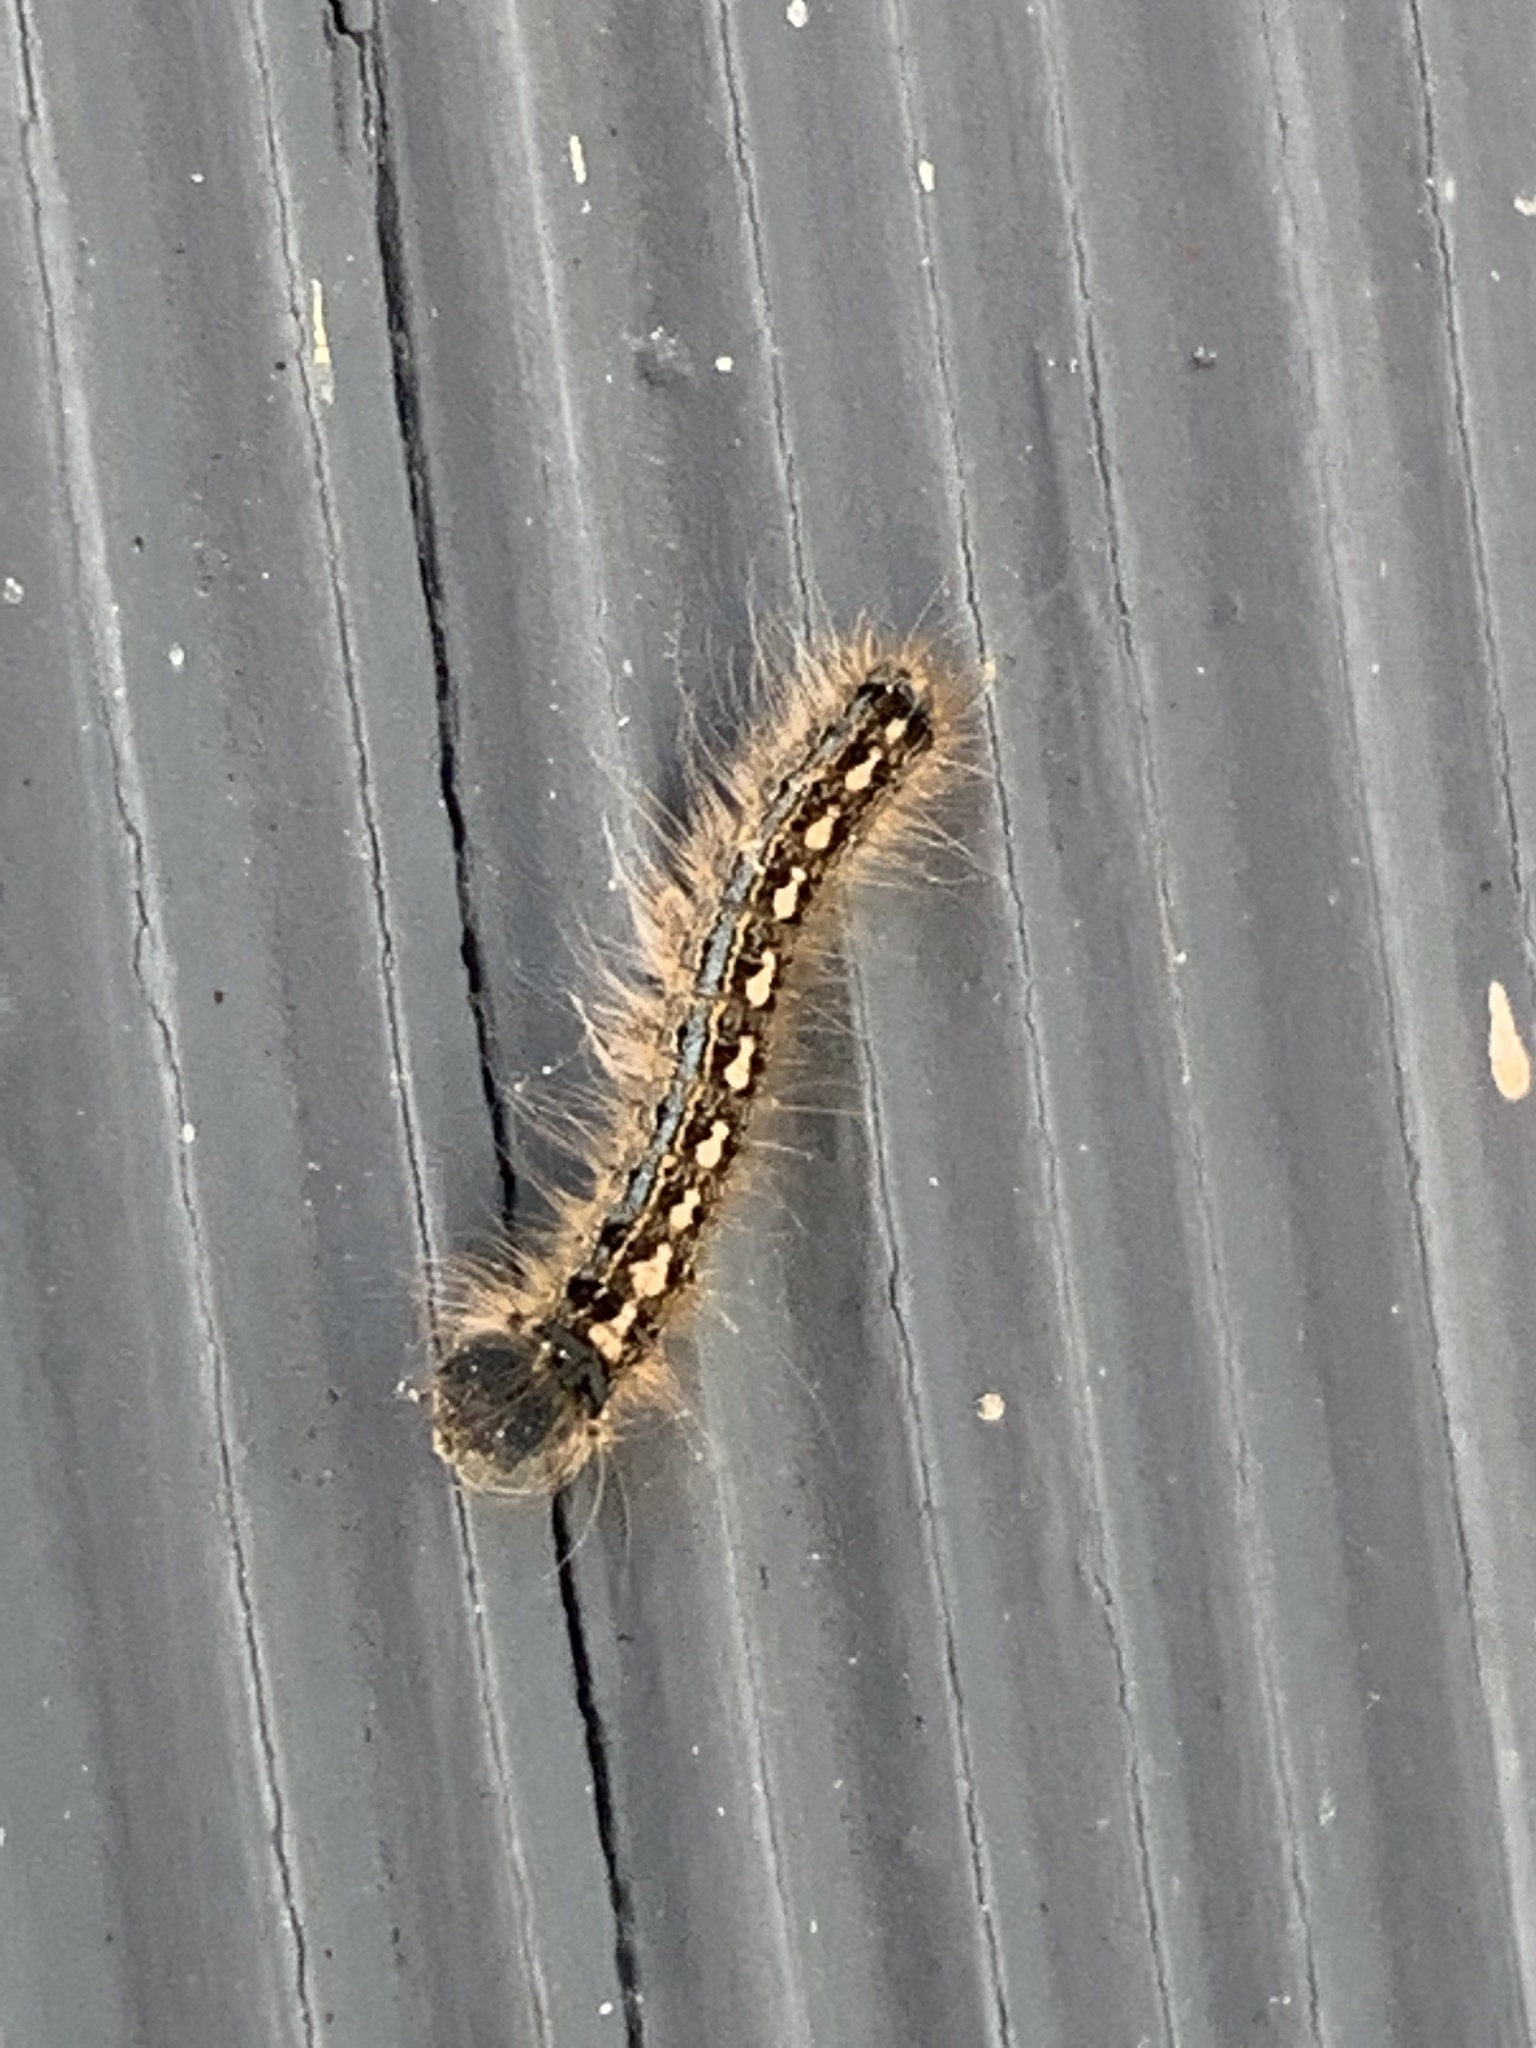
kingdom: Animalia
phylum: Arthropoda
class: Insecta
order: Lepidoptera
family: Lasiocampidae
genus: Malacosoma
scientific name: Malacosoma disstria
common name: Forest tent caterpillar
